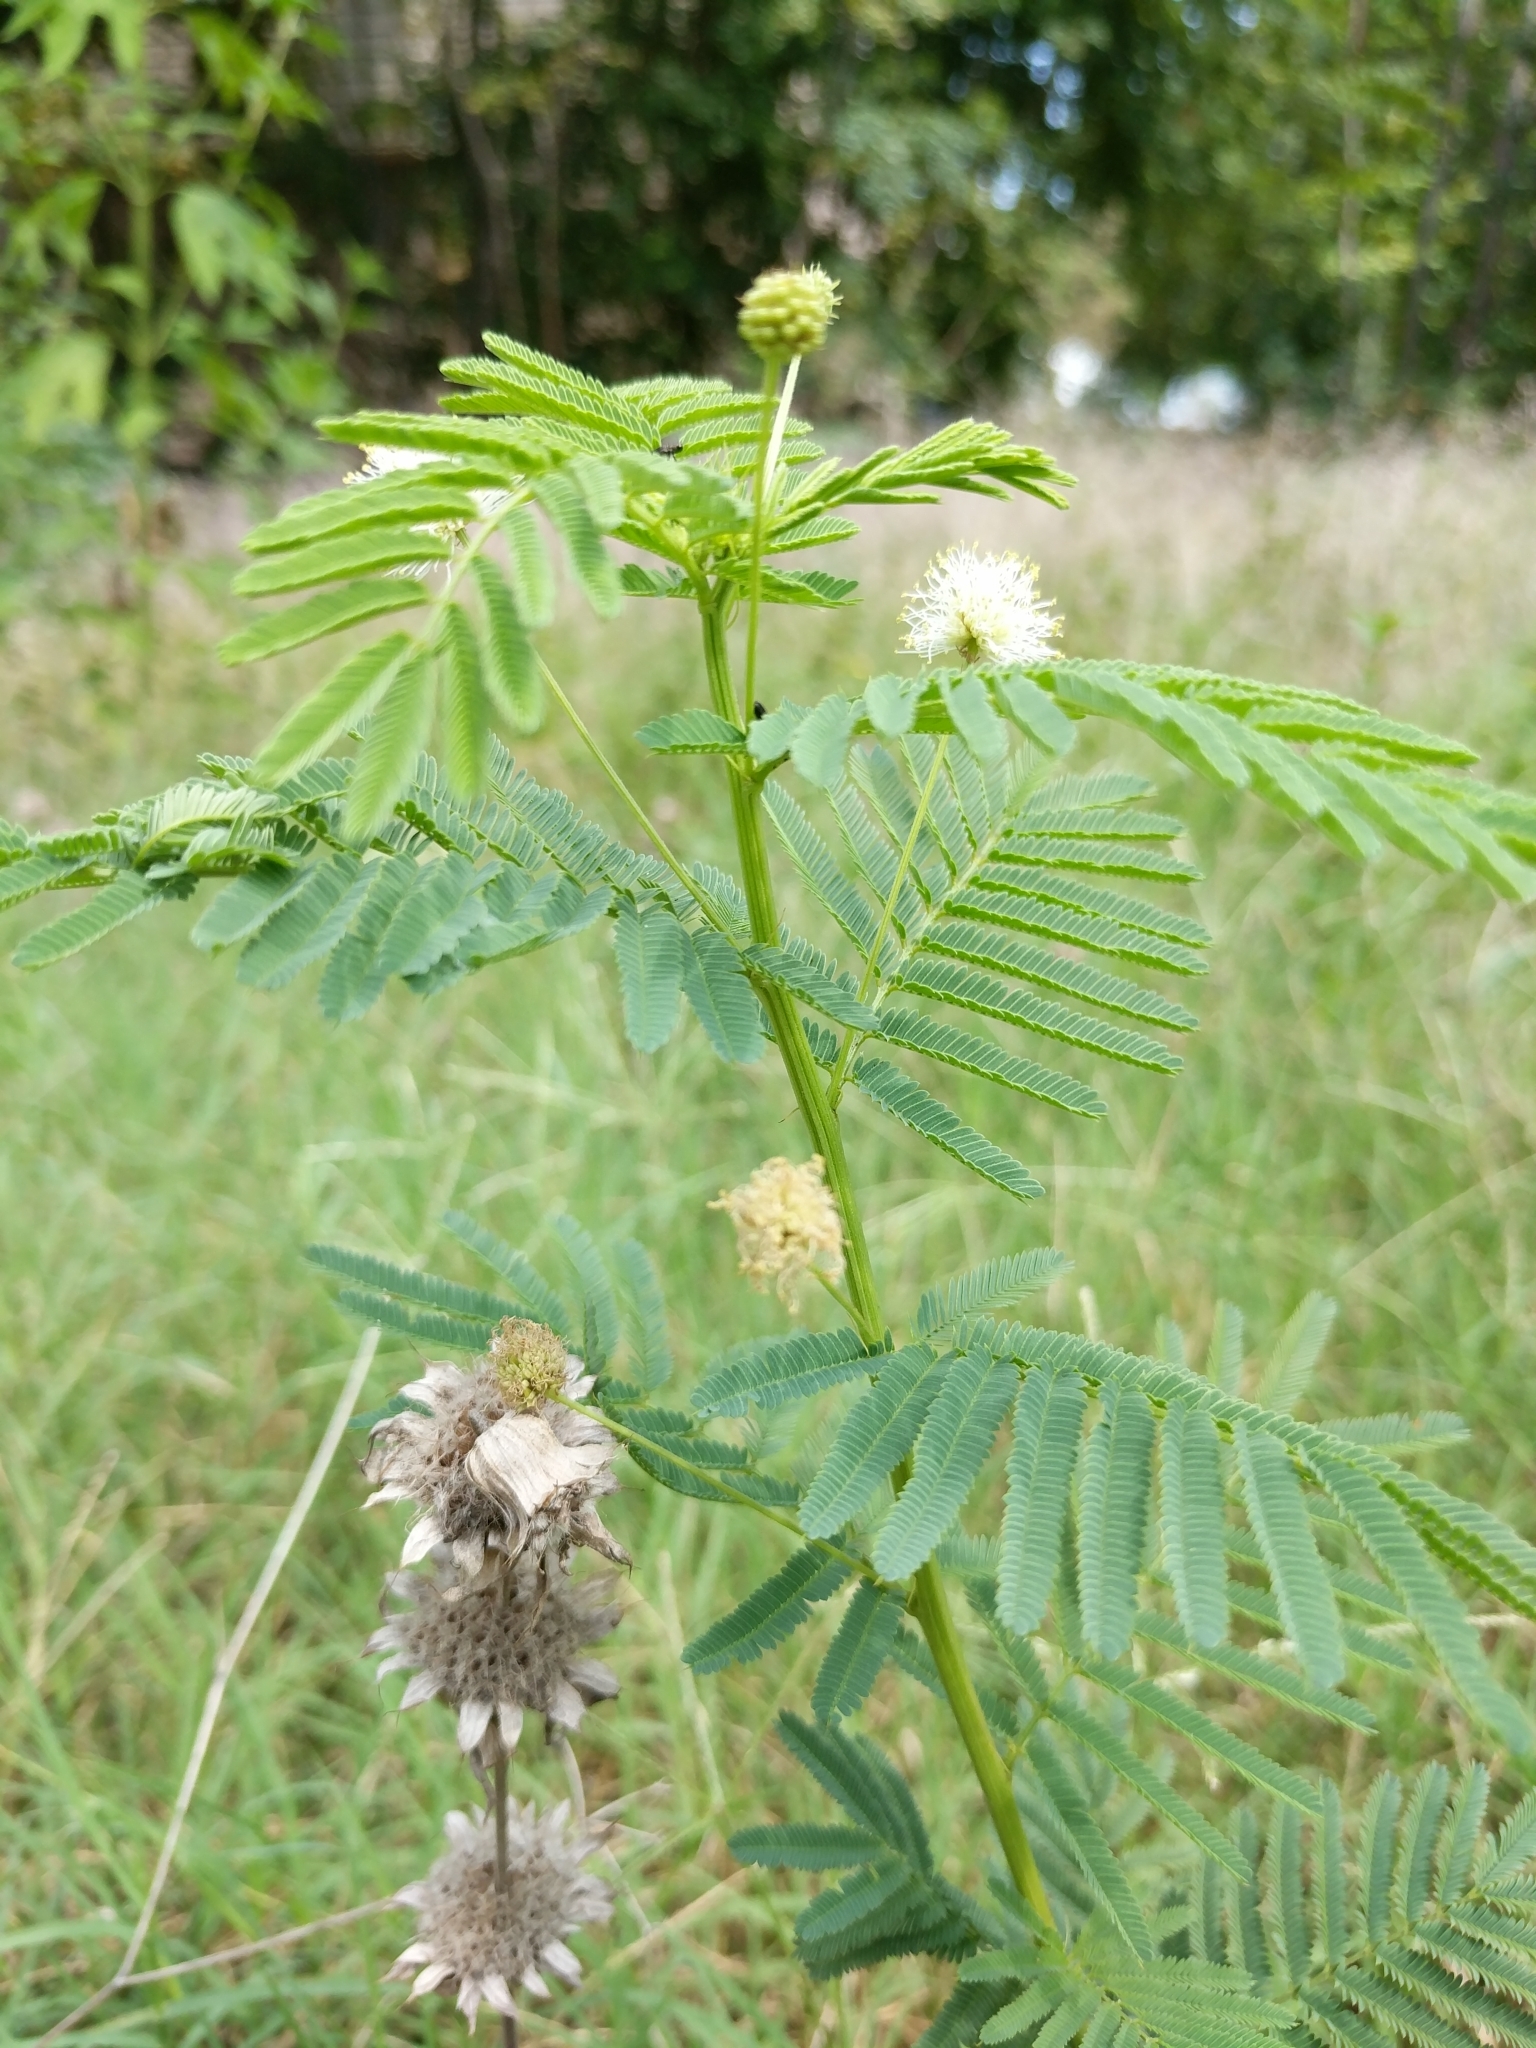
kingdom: Plantae
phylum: Tracheophyta
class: Magnoliopsida
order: Fabales
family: Fabaceae
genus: Desmanthus
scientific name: Desmanthus illinoensis
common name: Illinois bundle-flower
